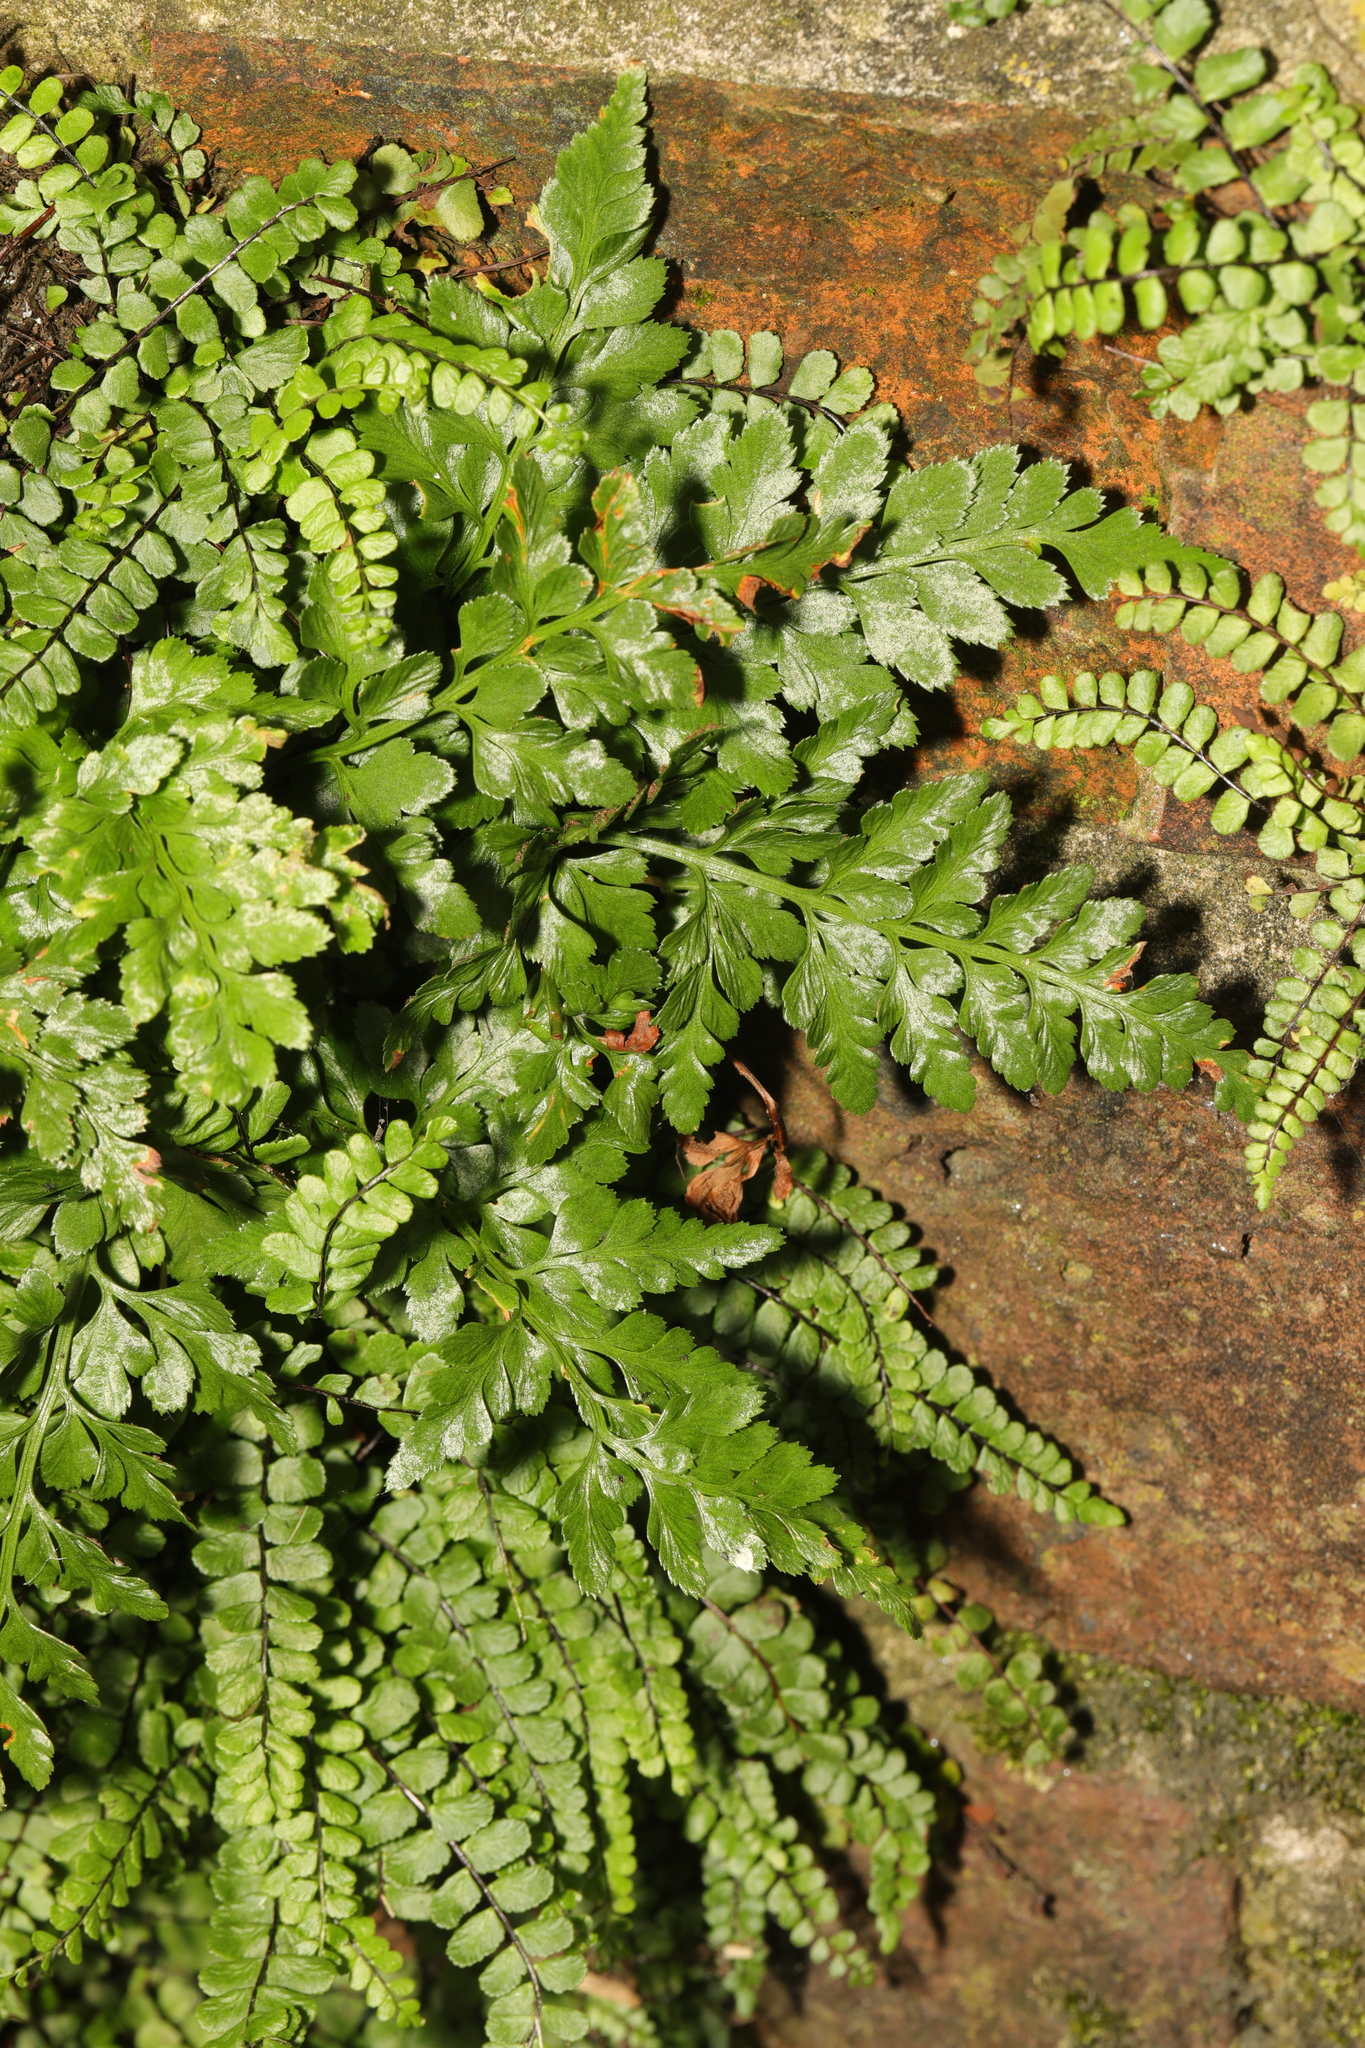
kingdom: Plantae
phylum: Tracheophyta
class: Polypodiopsida
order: Polypodiales
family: Aspleniaceae
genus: Asplenium
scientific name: Asplenium adiantum-nigrum
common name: Black spleenwort
